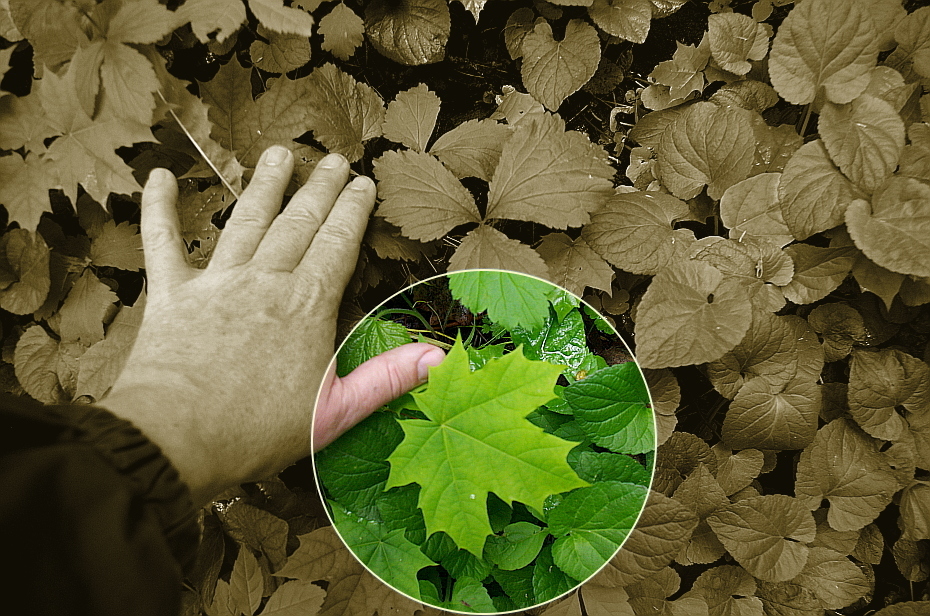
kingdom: Plantae
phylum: Tracheophyta
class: Magnoliopsida
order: Sapindales
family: Sapindaceae
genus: Acer
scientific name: Acer platanoides
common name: Norway maple
